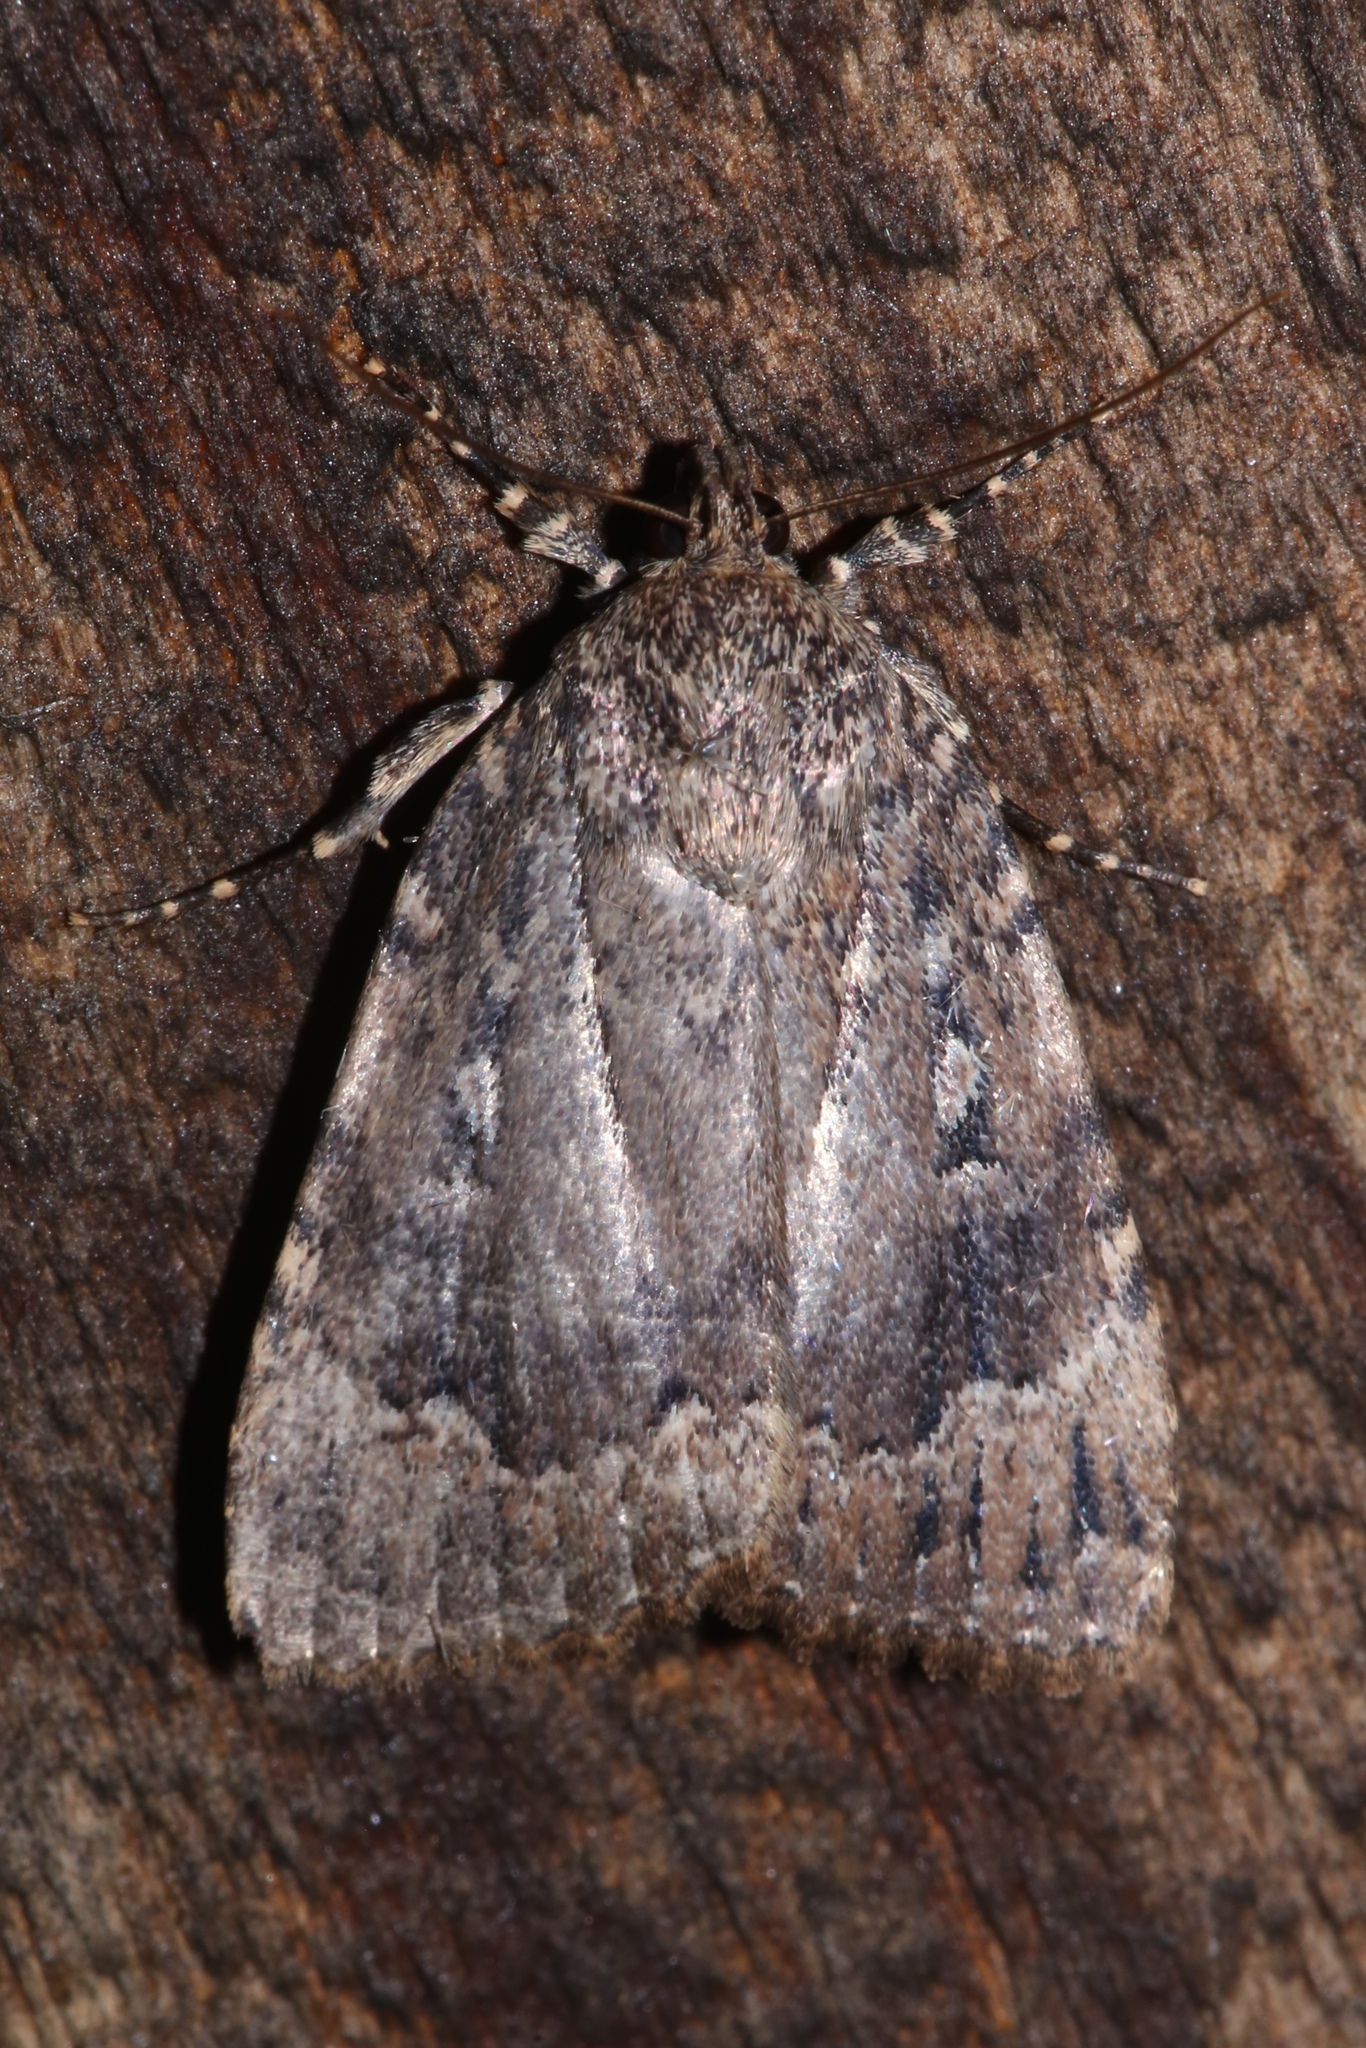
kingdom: Animalia
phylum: Arthropoda
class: Insecta
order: Lepidoptera
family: Noctuidae
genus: Amphipyra
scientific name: Amphipyra pyramidoides
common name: American copper underwing
